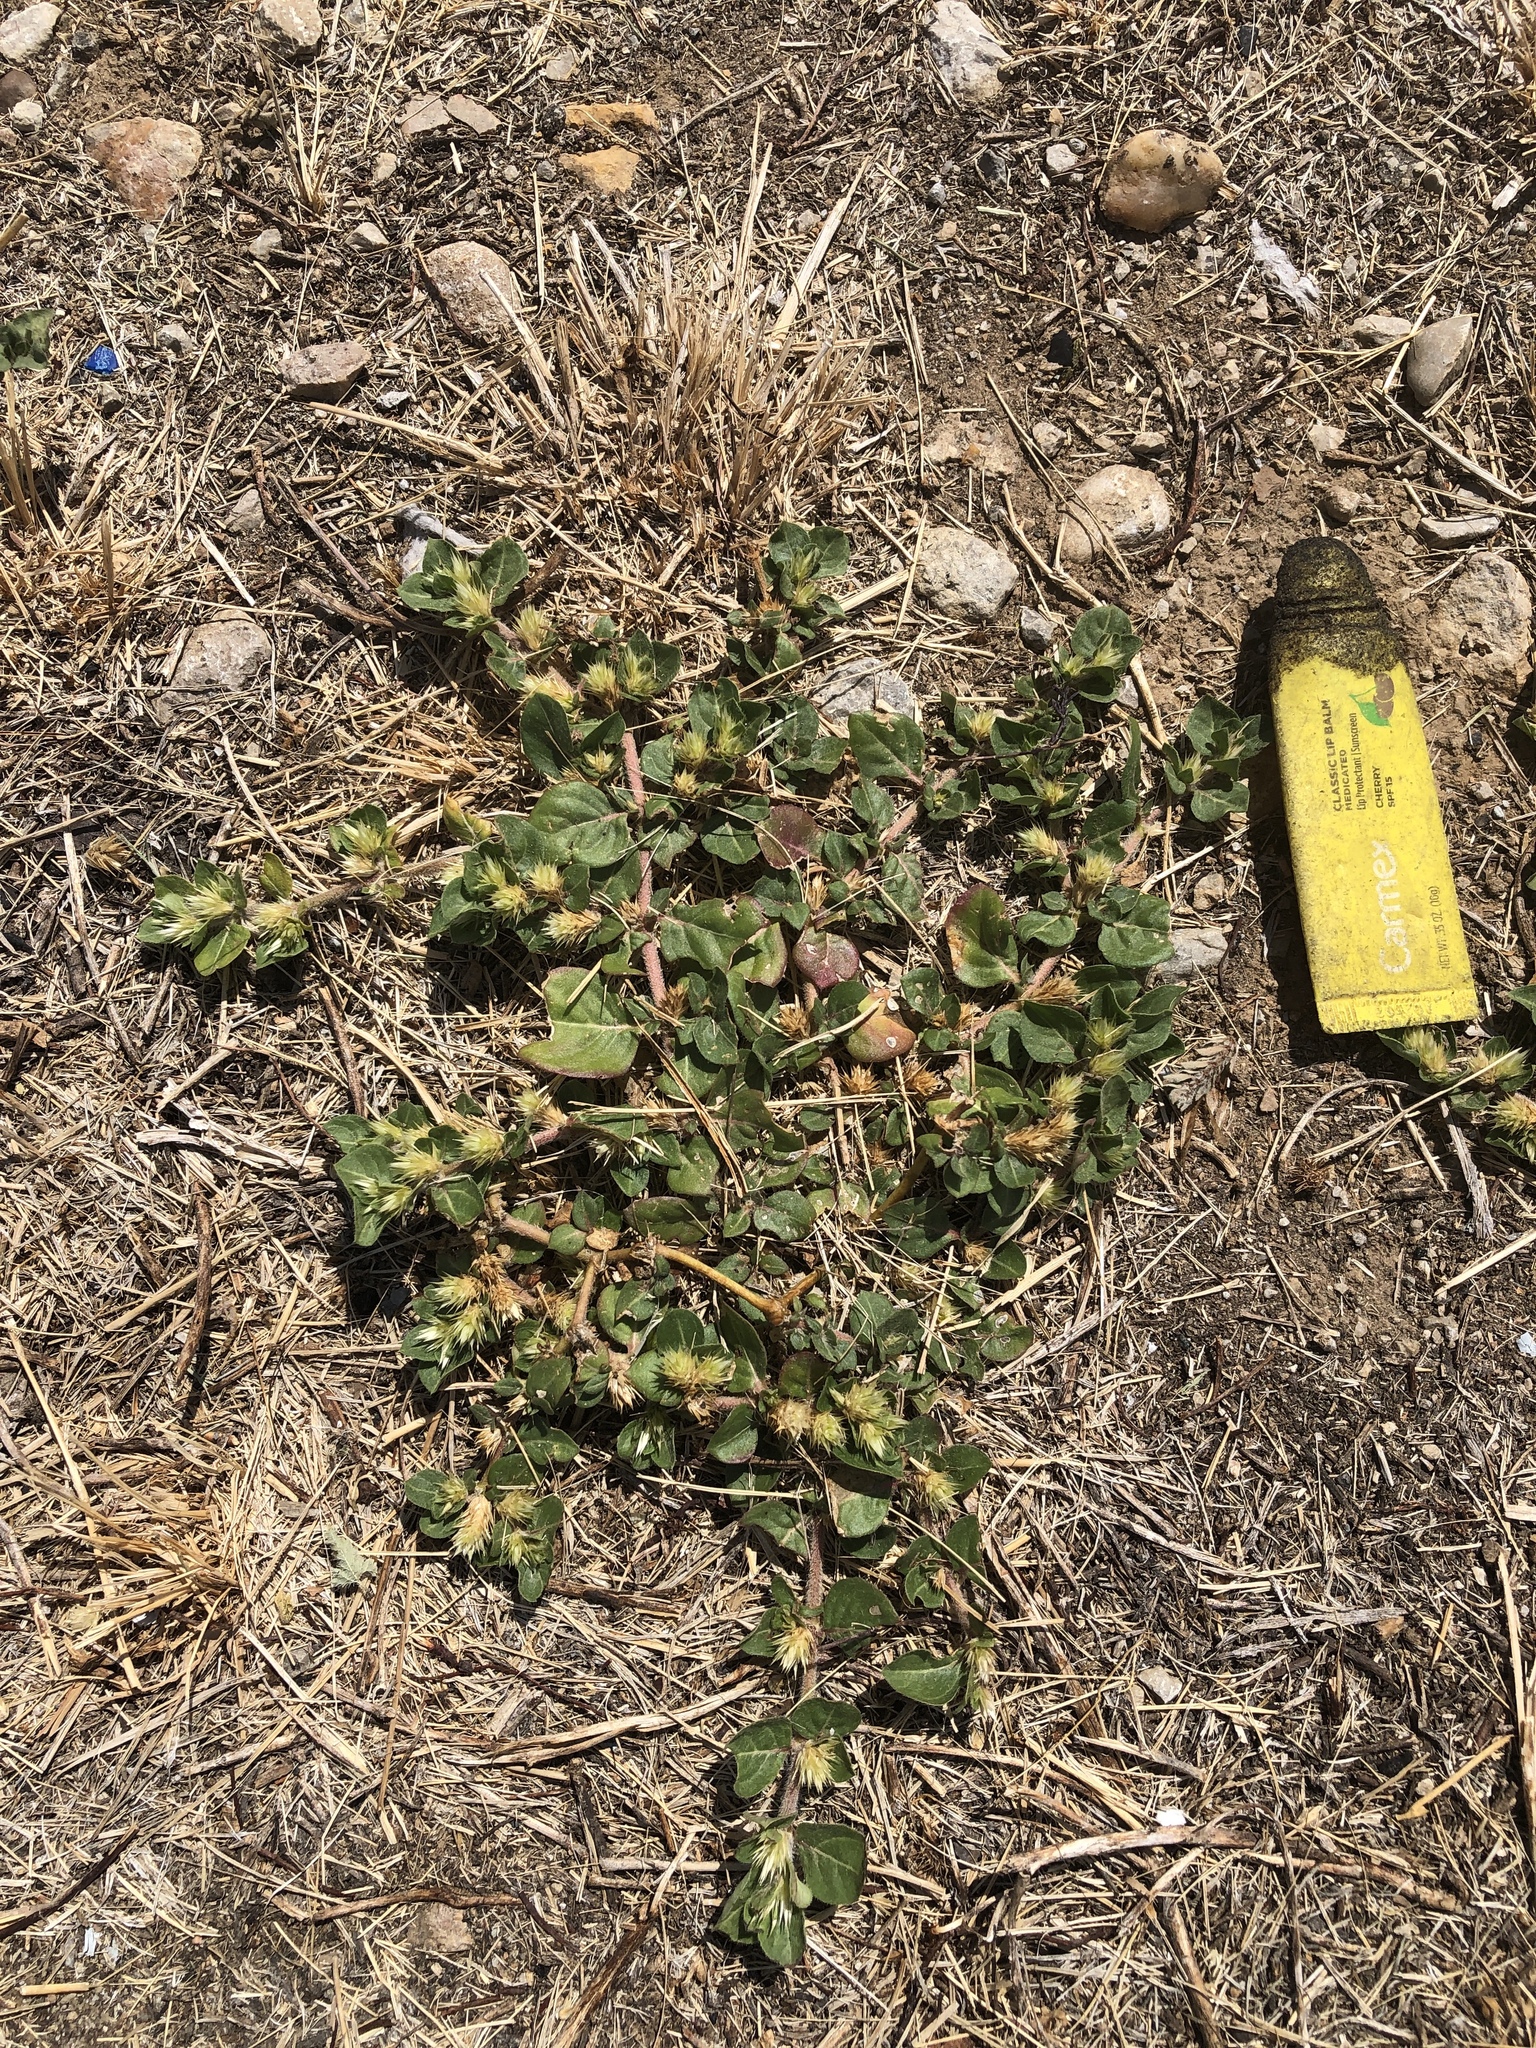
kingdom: Plantae
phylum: Tracheophyta
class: Magnoliopsida
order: Caryophyllales
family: Amaranthaceae
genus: Alternanthera
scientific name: Alternanthera pungens
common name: Khakiweed
